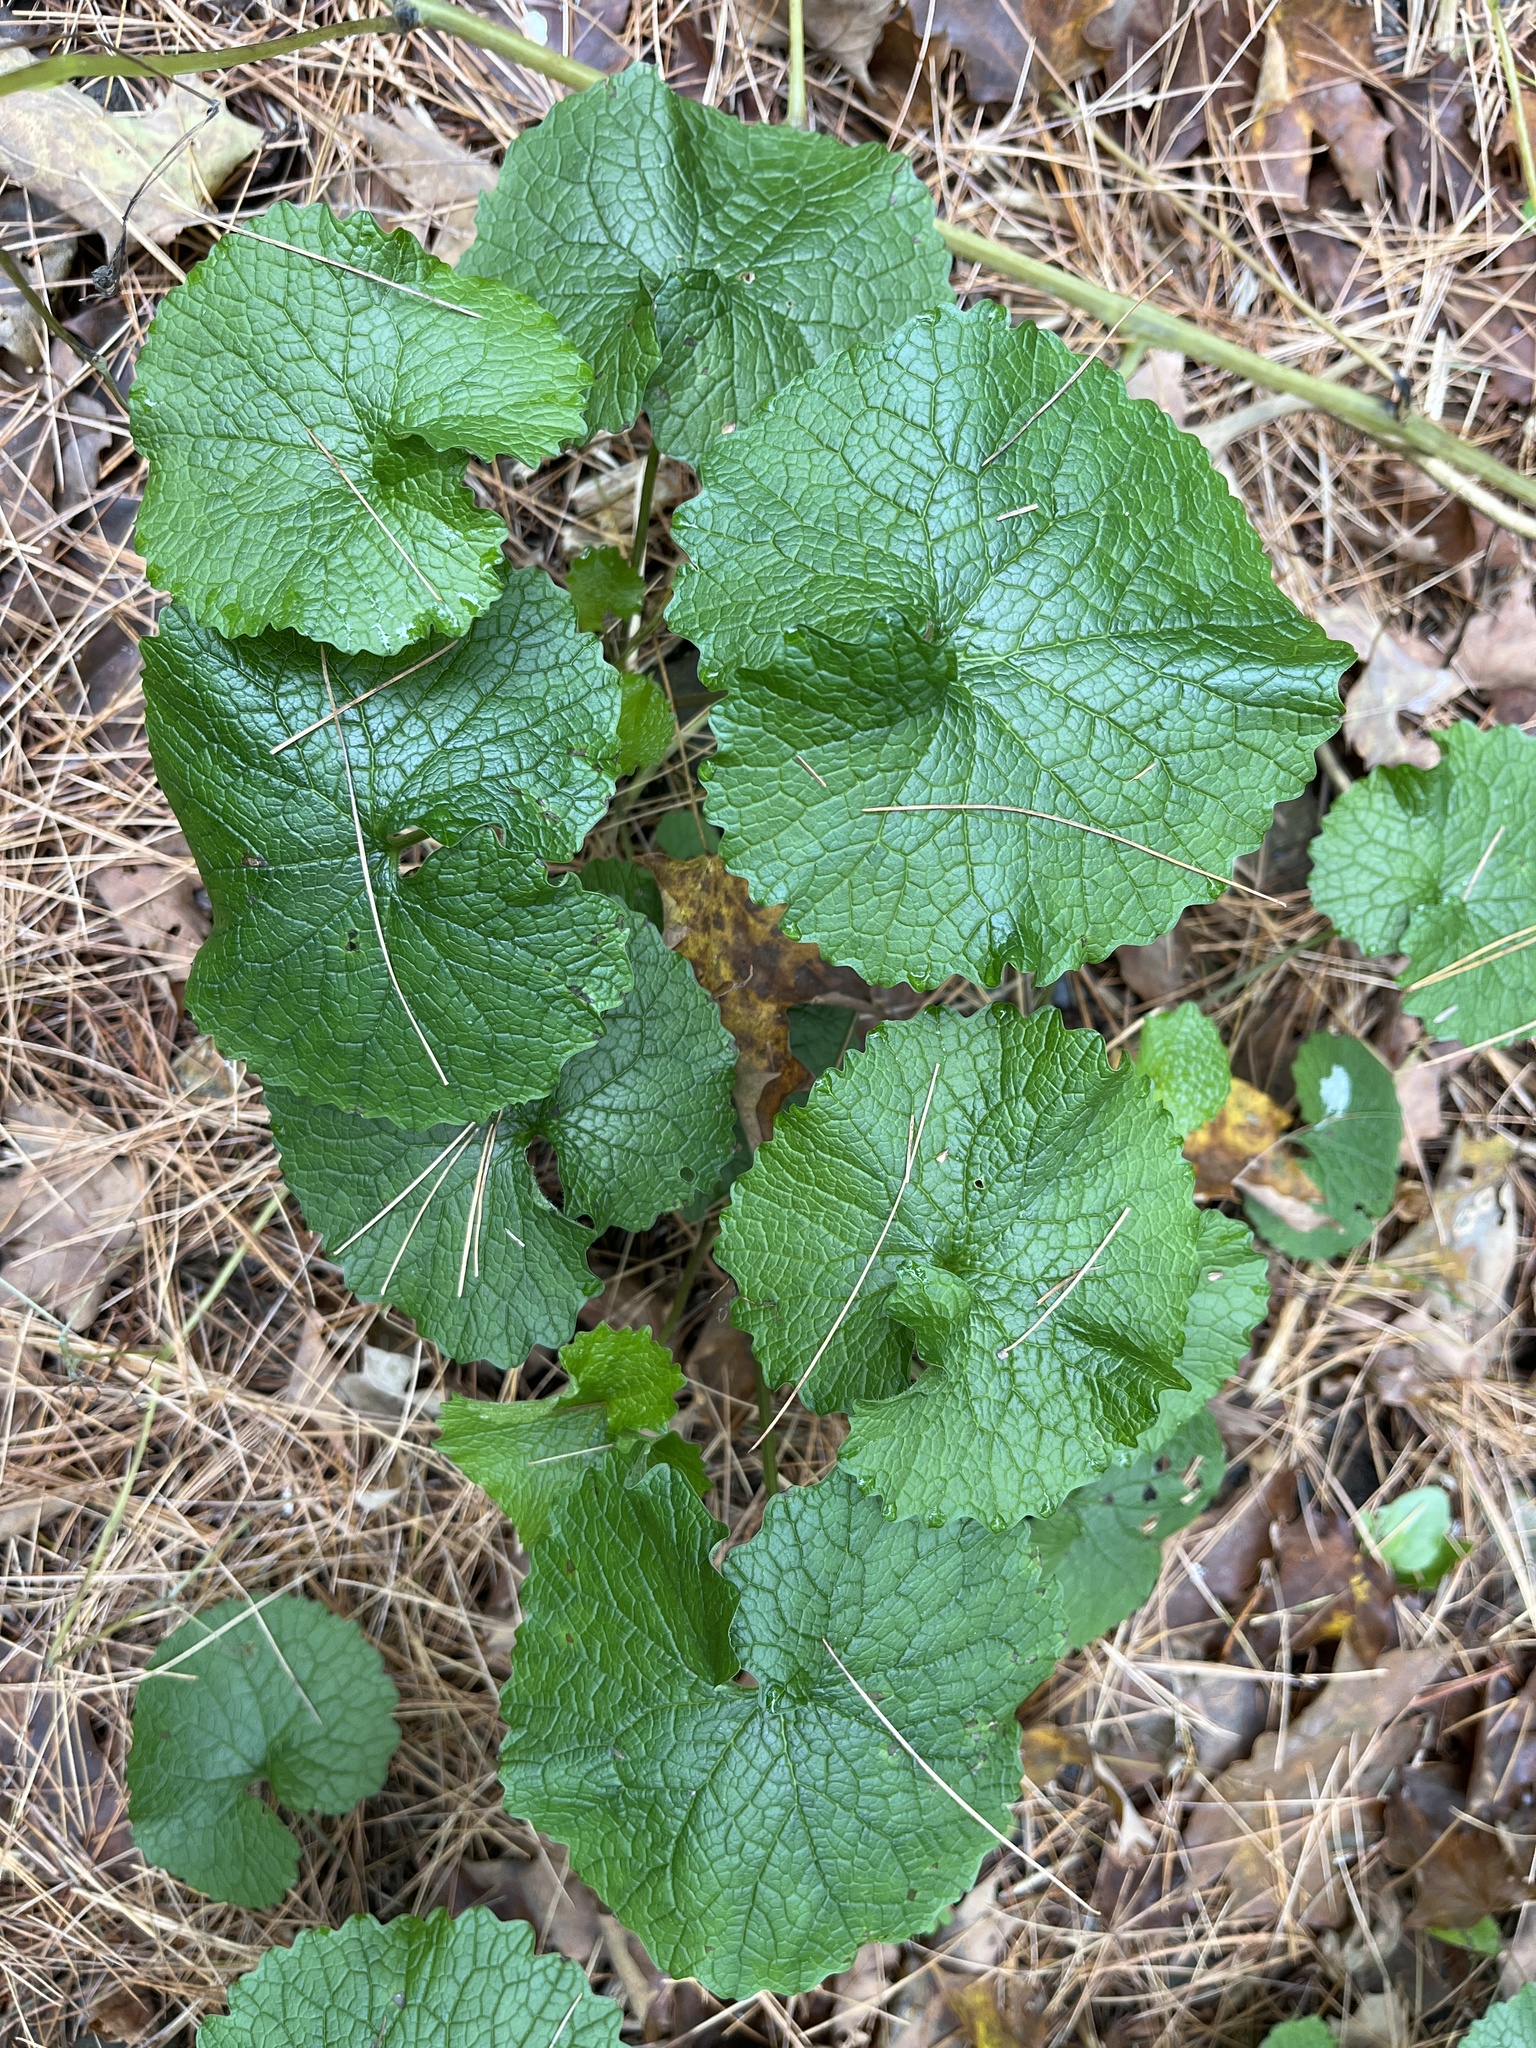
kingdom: Plantae
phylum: Tracheophyta
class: Magnoliopsida
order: Brassicales
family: Brassicaceae
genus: Alliaria
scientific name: Alliaria petiolata
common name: Garlic mustard
